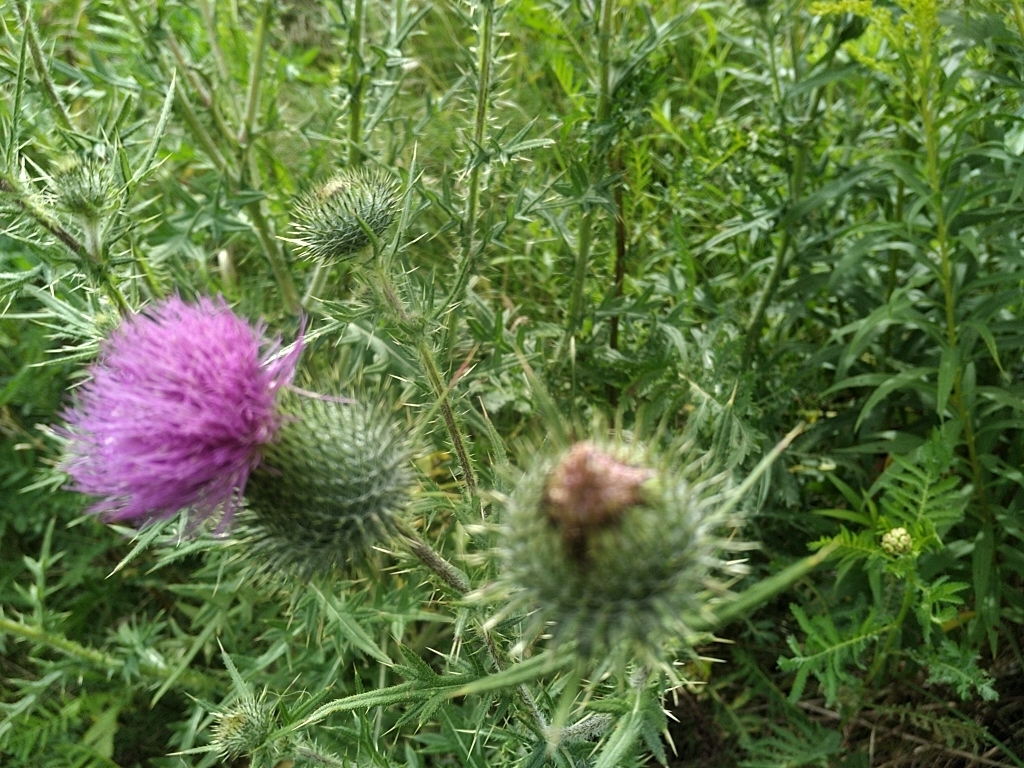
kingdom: Plantae
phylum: Tracheophyta
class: Magnoliopsida
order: Asterales
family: Asteraceae
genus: Cirsium
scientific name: Cirsium vulgare
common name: Bull thistle
